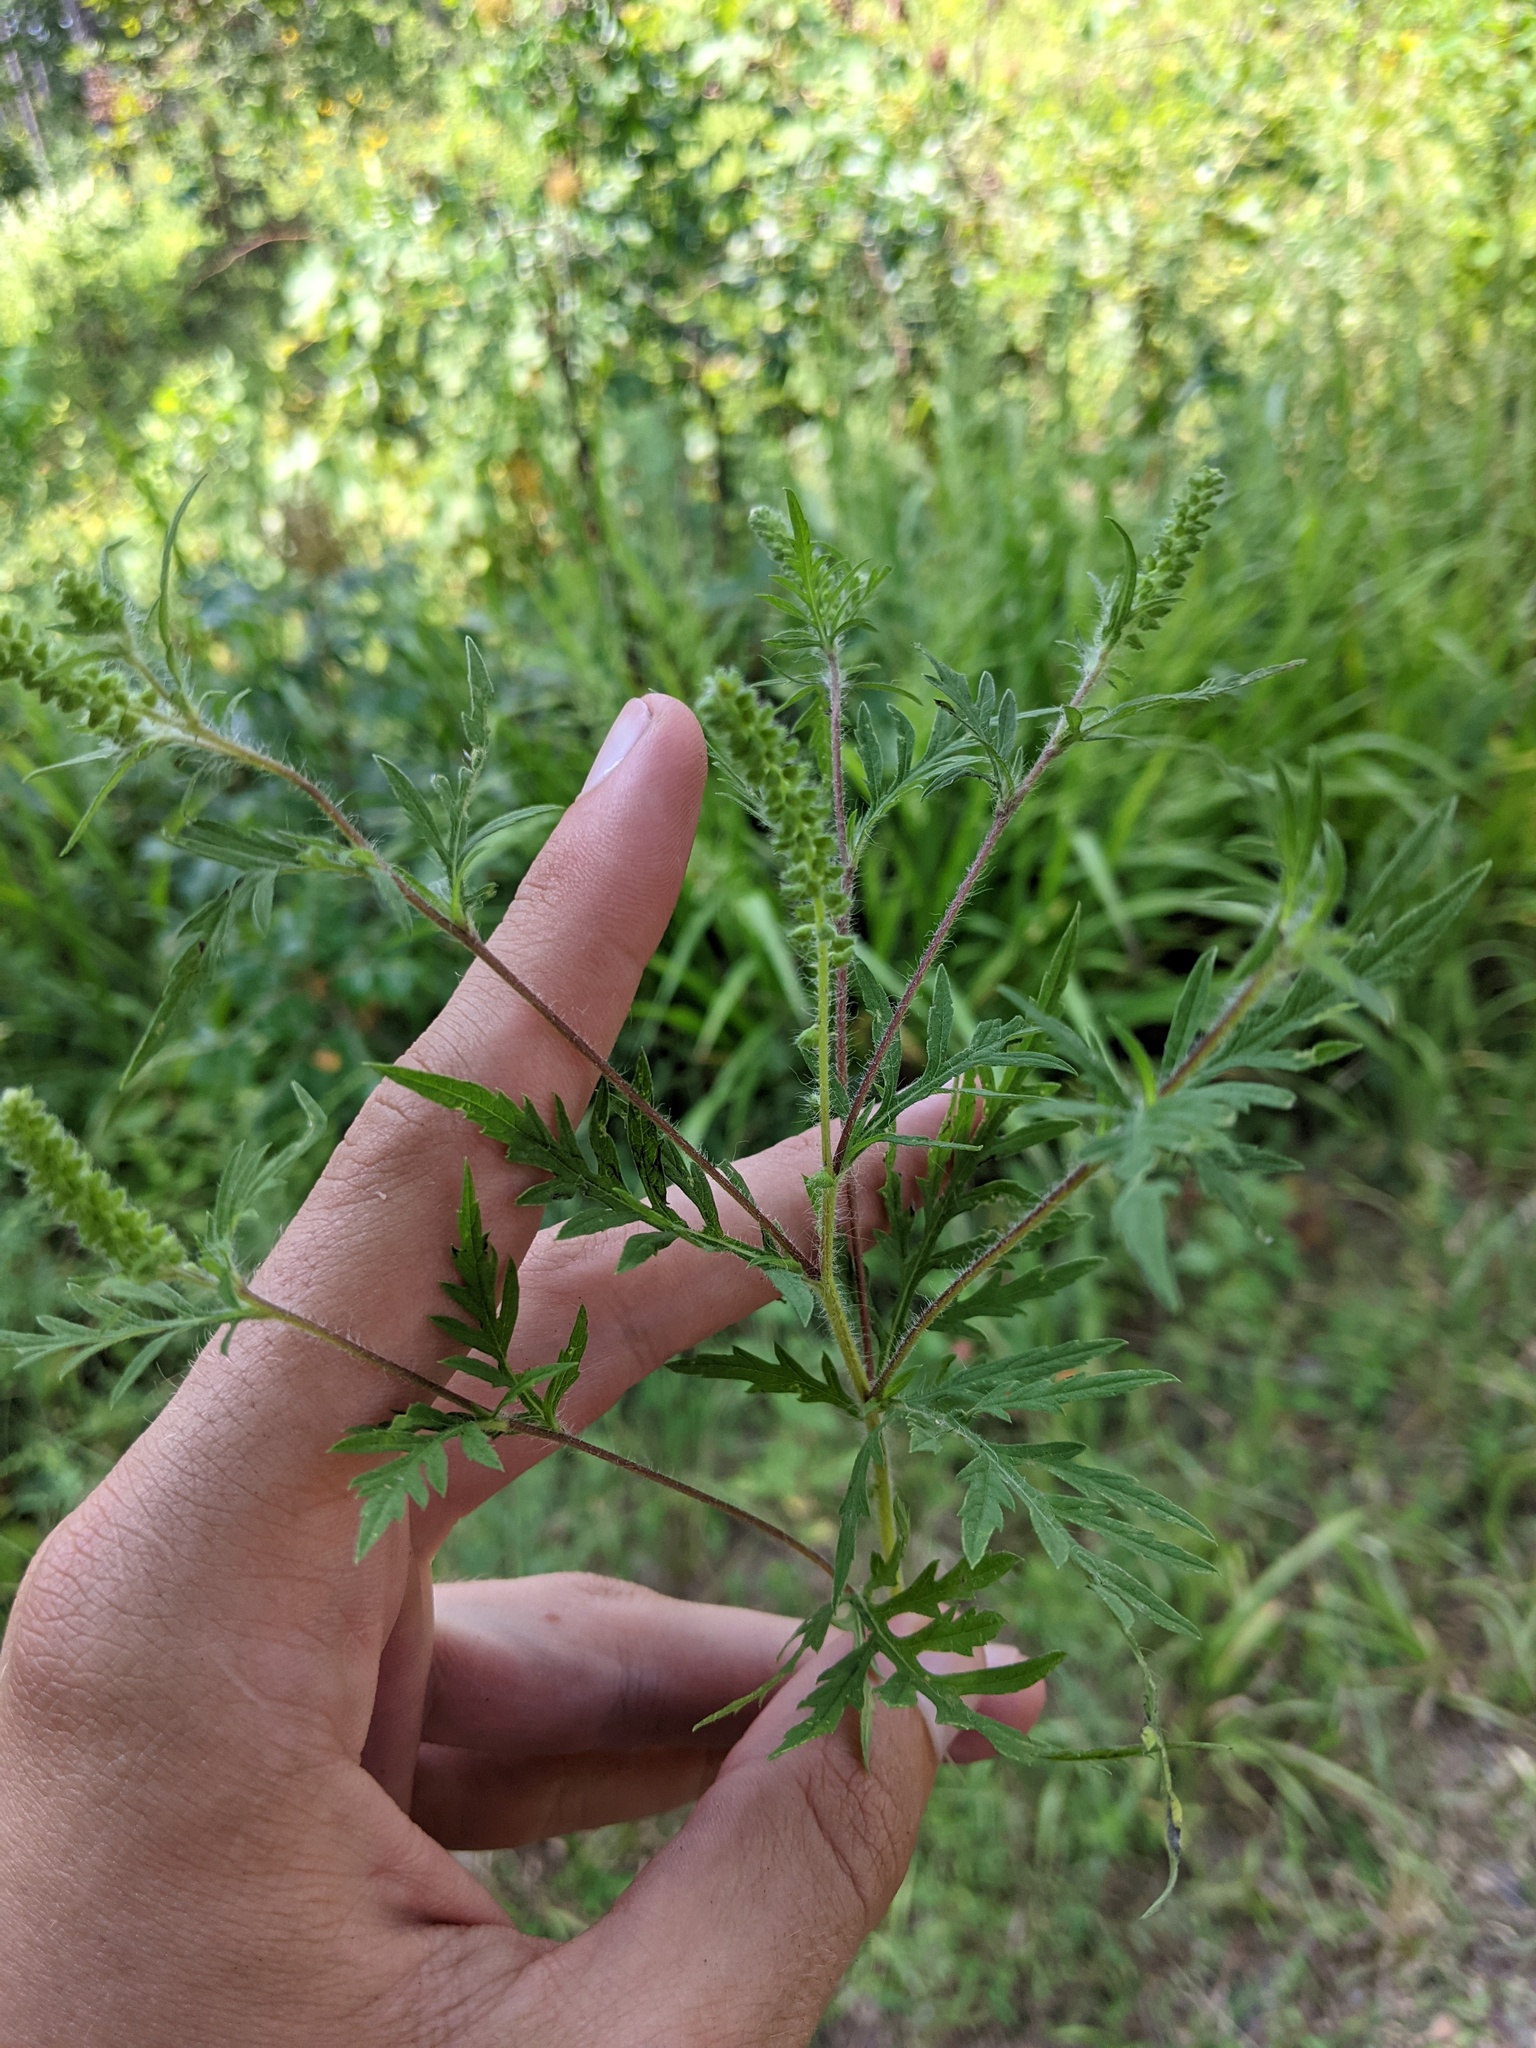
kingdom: Plantae
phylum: Tracheophyta
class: Magnoliopsida
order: Asterales
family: Asteraceae
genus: Ambrosia
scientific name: Ambrosia artemisiifolia
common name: Annual ragweed
